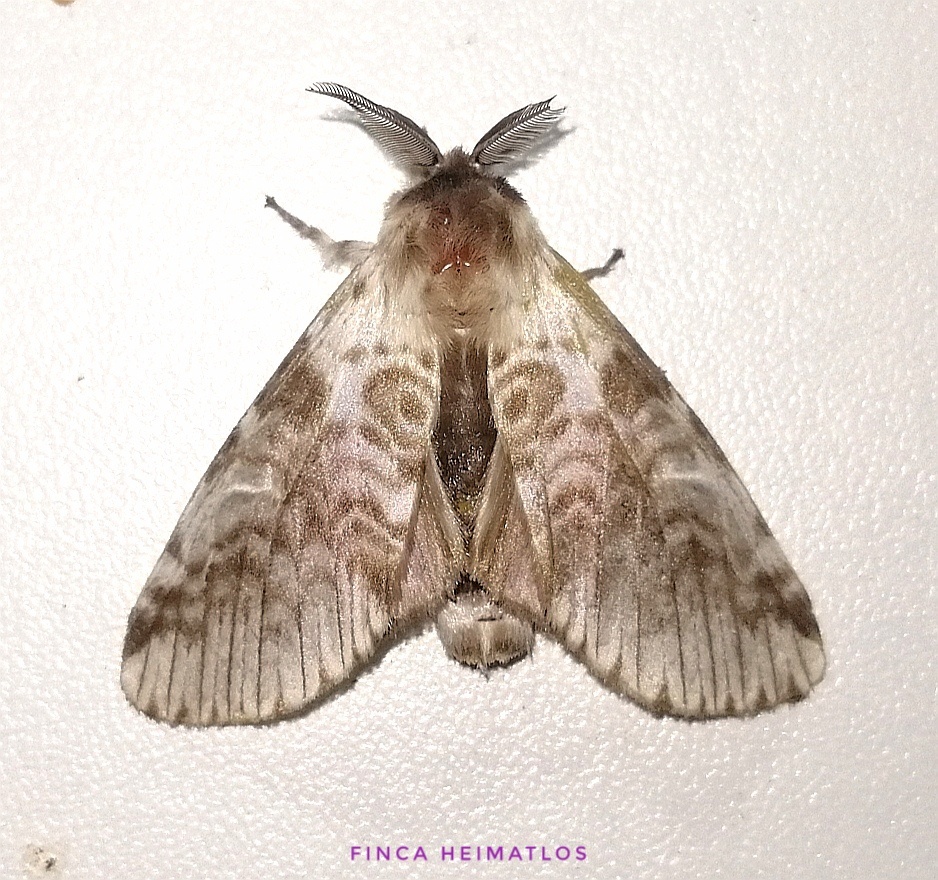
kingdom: Animalia
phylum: Arthropoda
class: Insecta
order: Lepidoptera
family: Notodontidae
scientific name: Notodontidae
